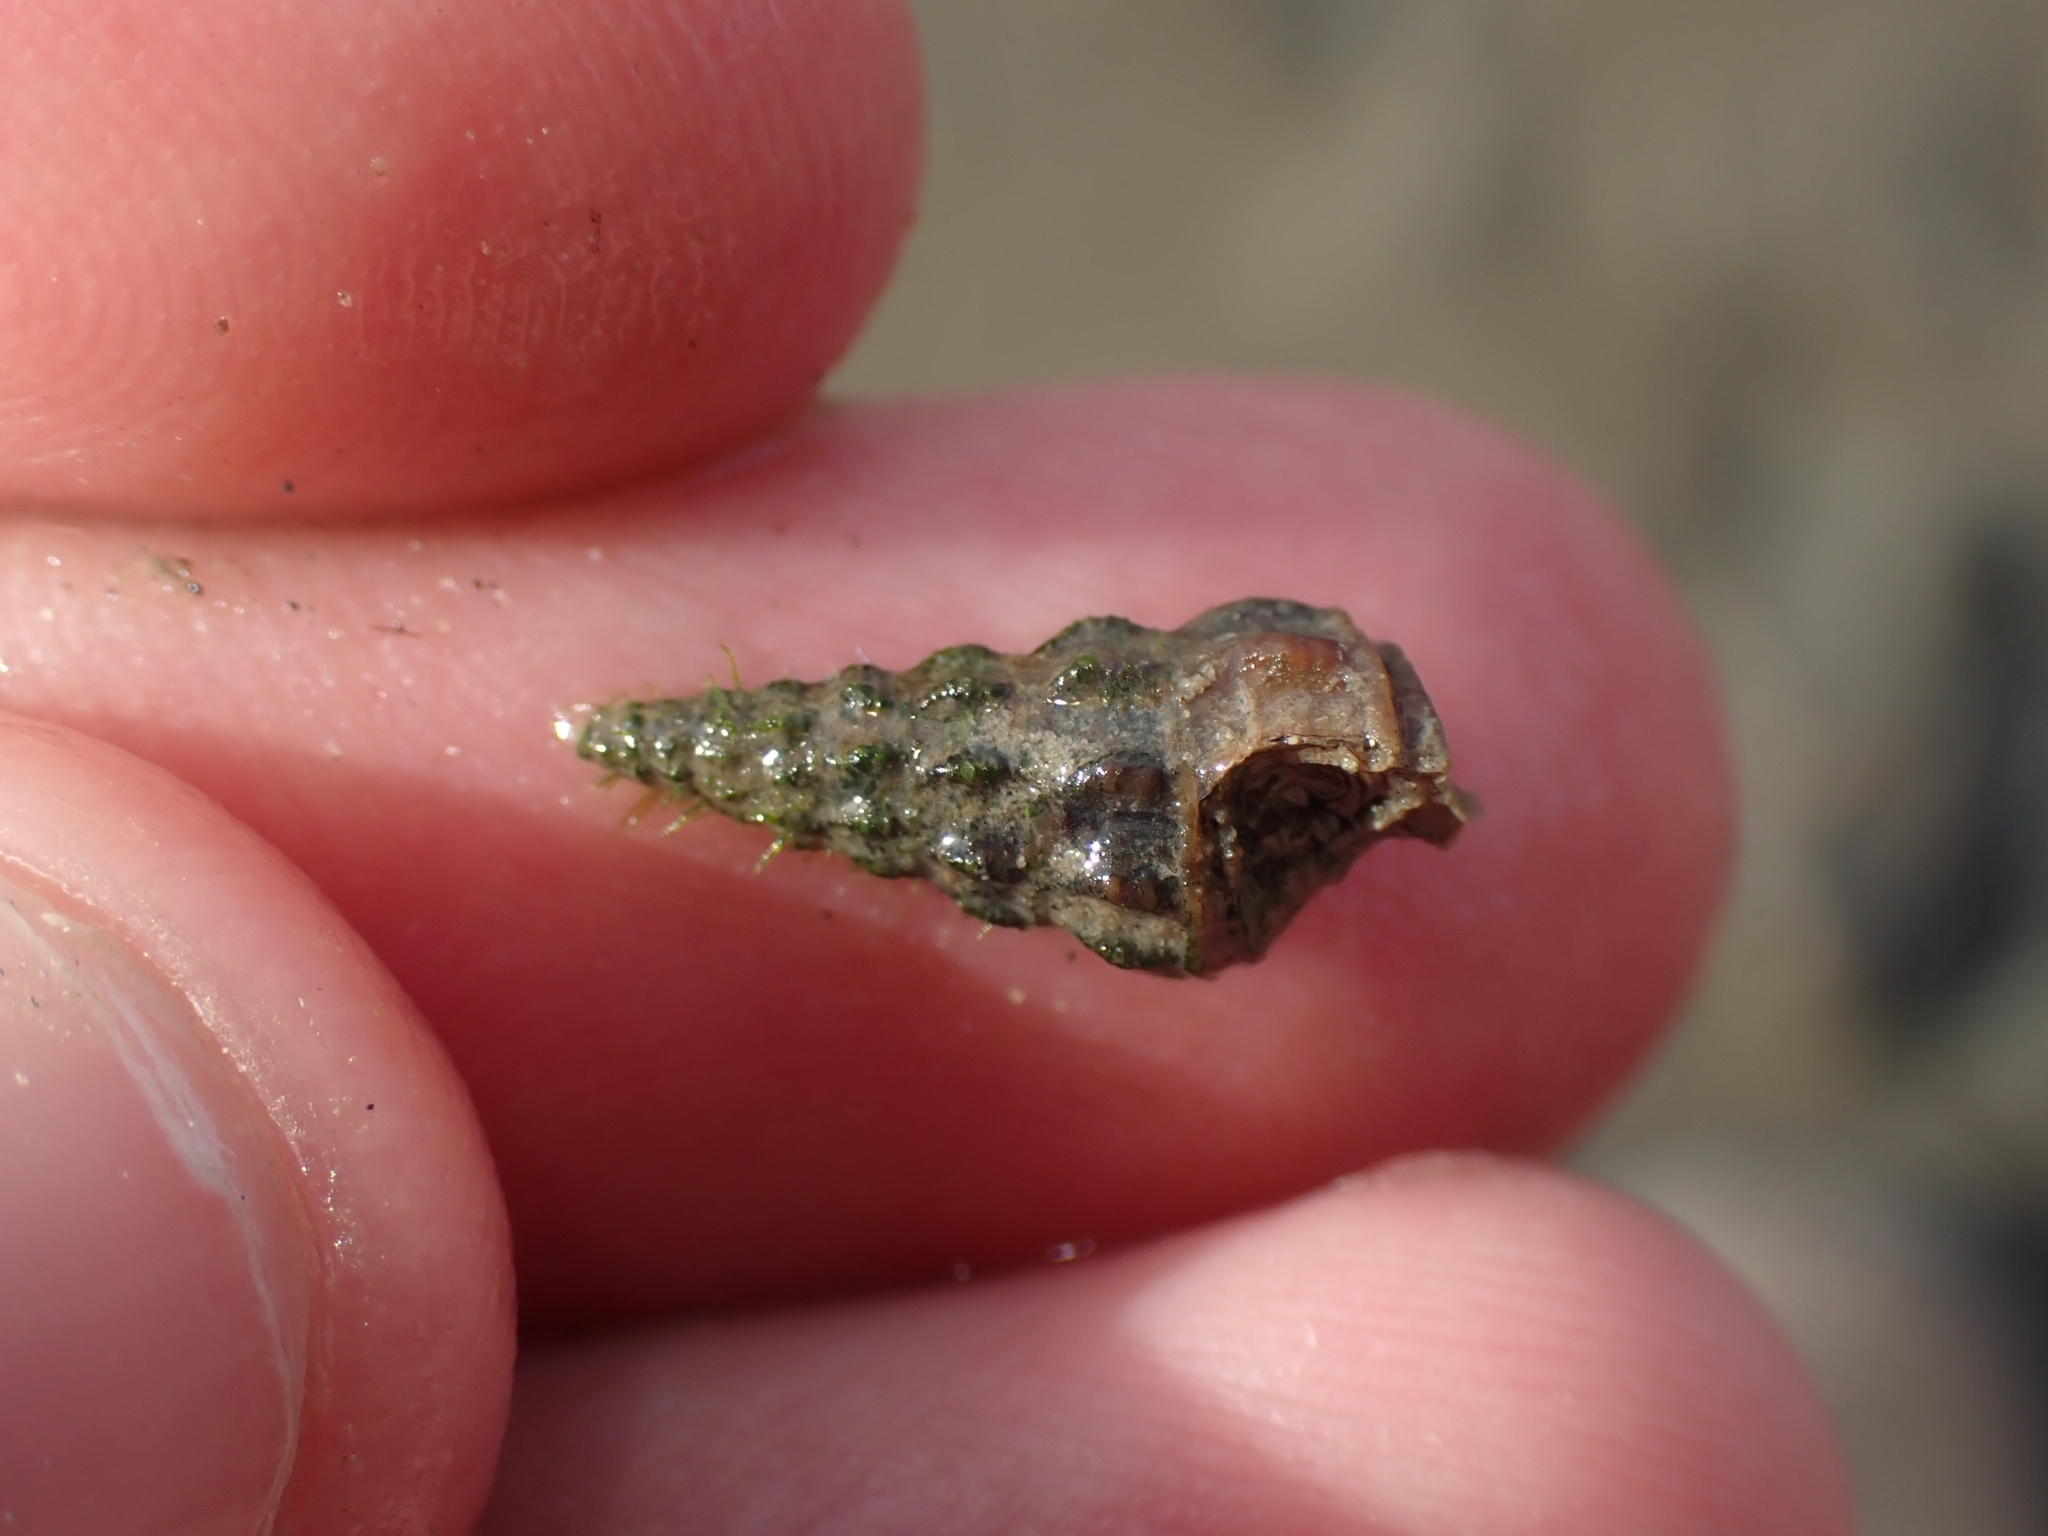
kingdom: Animalia
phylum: Mollusca
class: Gastropoda
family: Batillariidae
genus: Zeacumantus
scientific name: Zeacumantus lutulentus
